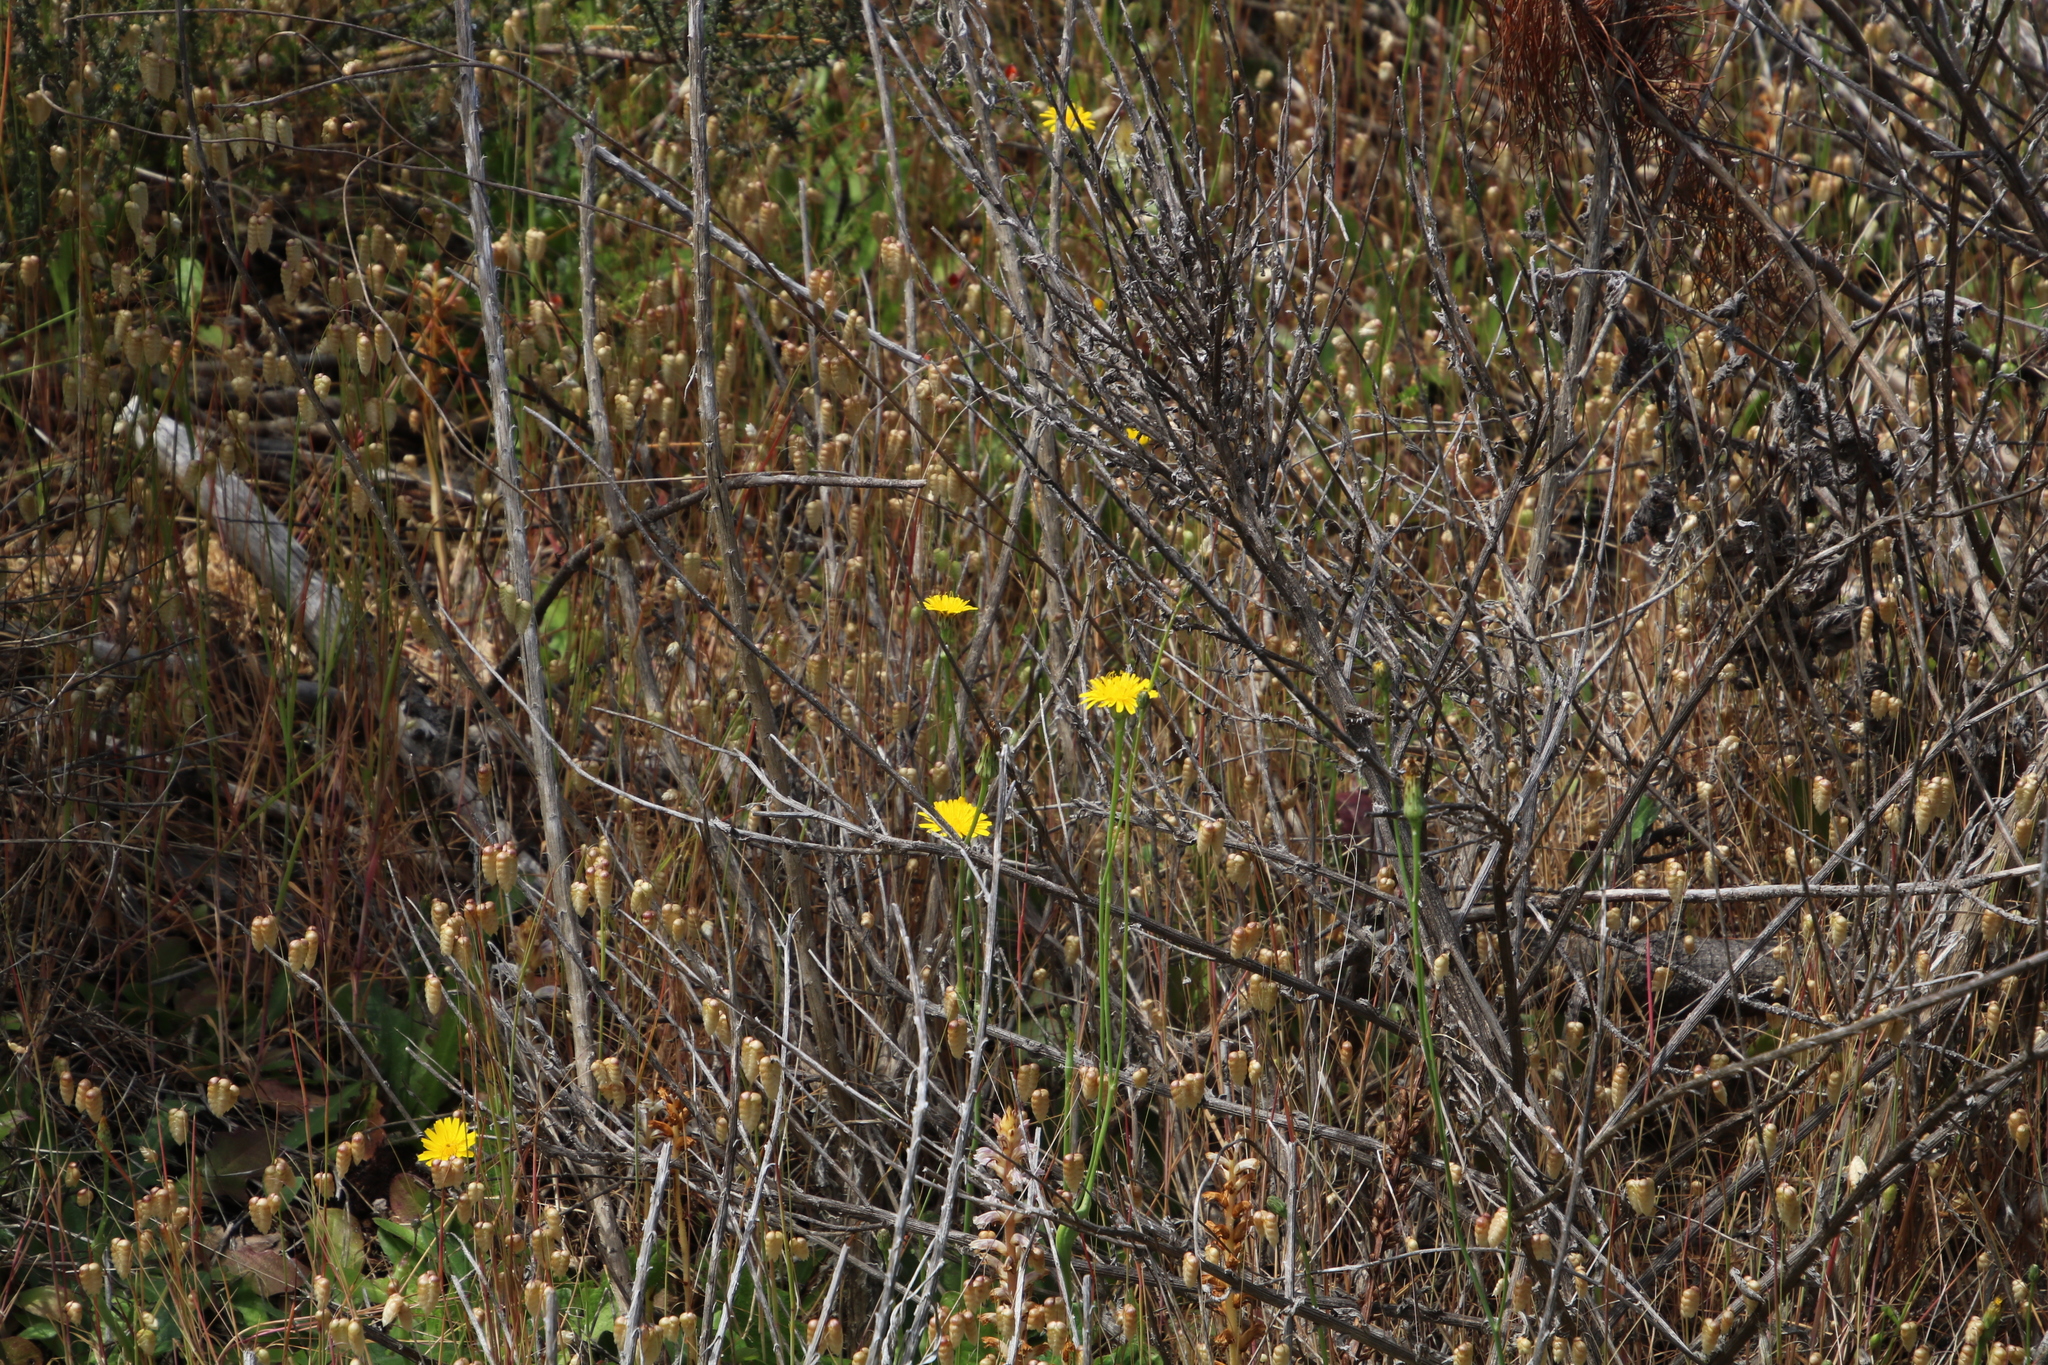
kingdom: Plantae
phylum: Tracheophyta
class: Magnoliopsida
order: Asterales
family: Asteraceae
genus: Hypochaeris
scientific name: Hypochaeris radicata
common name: Flatweed
